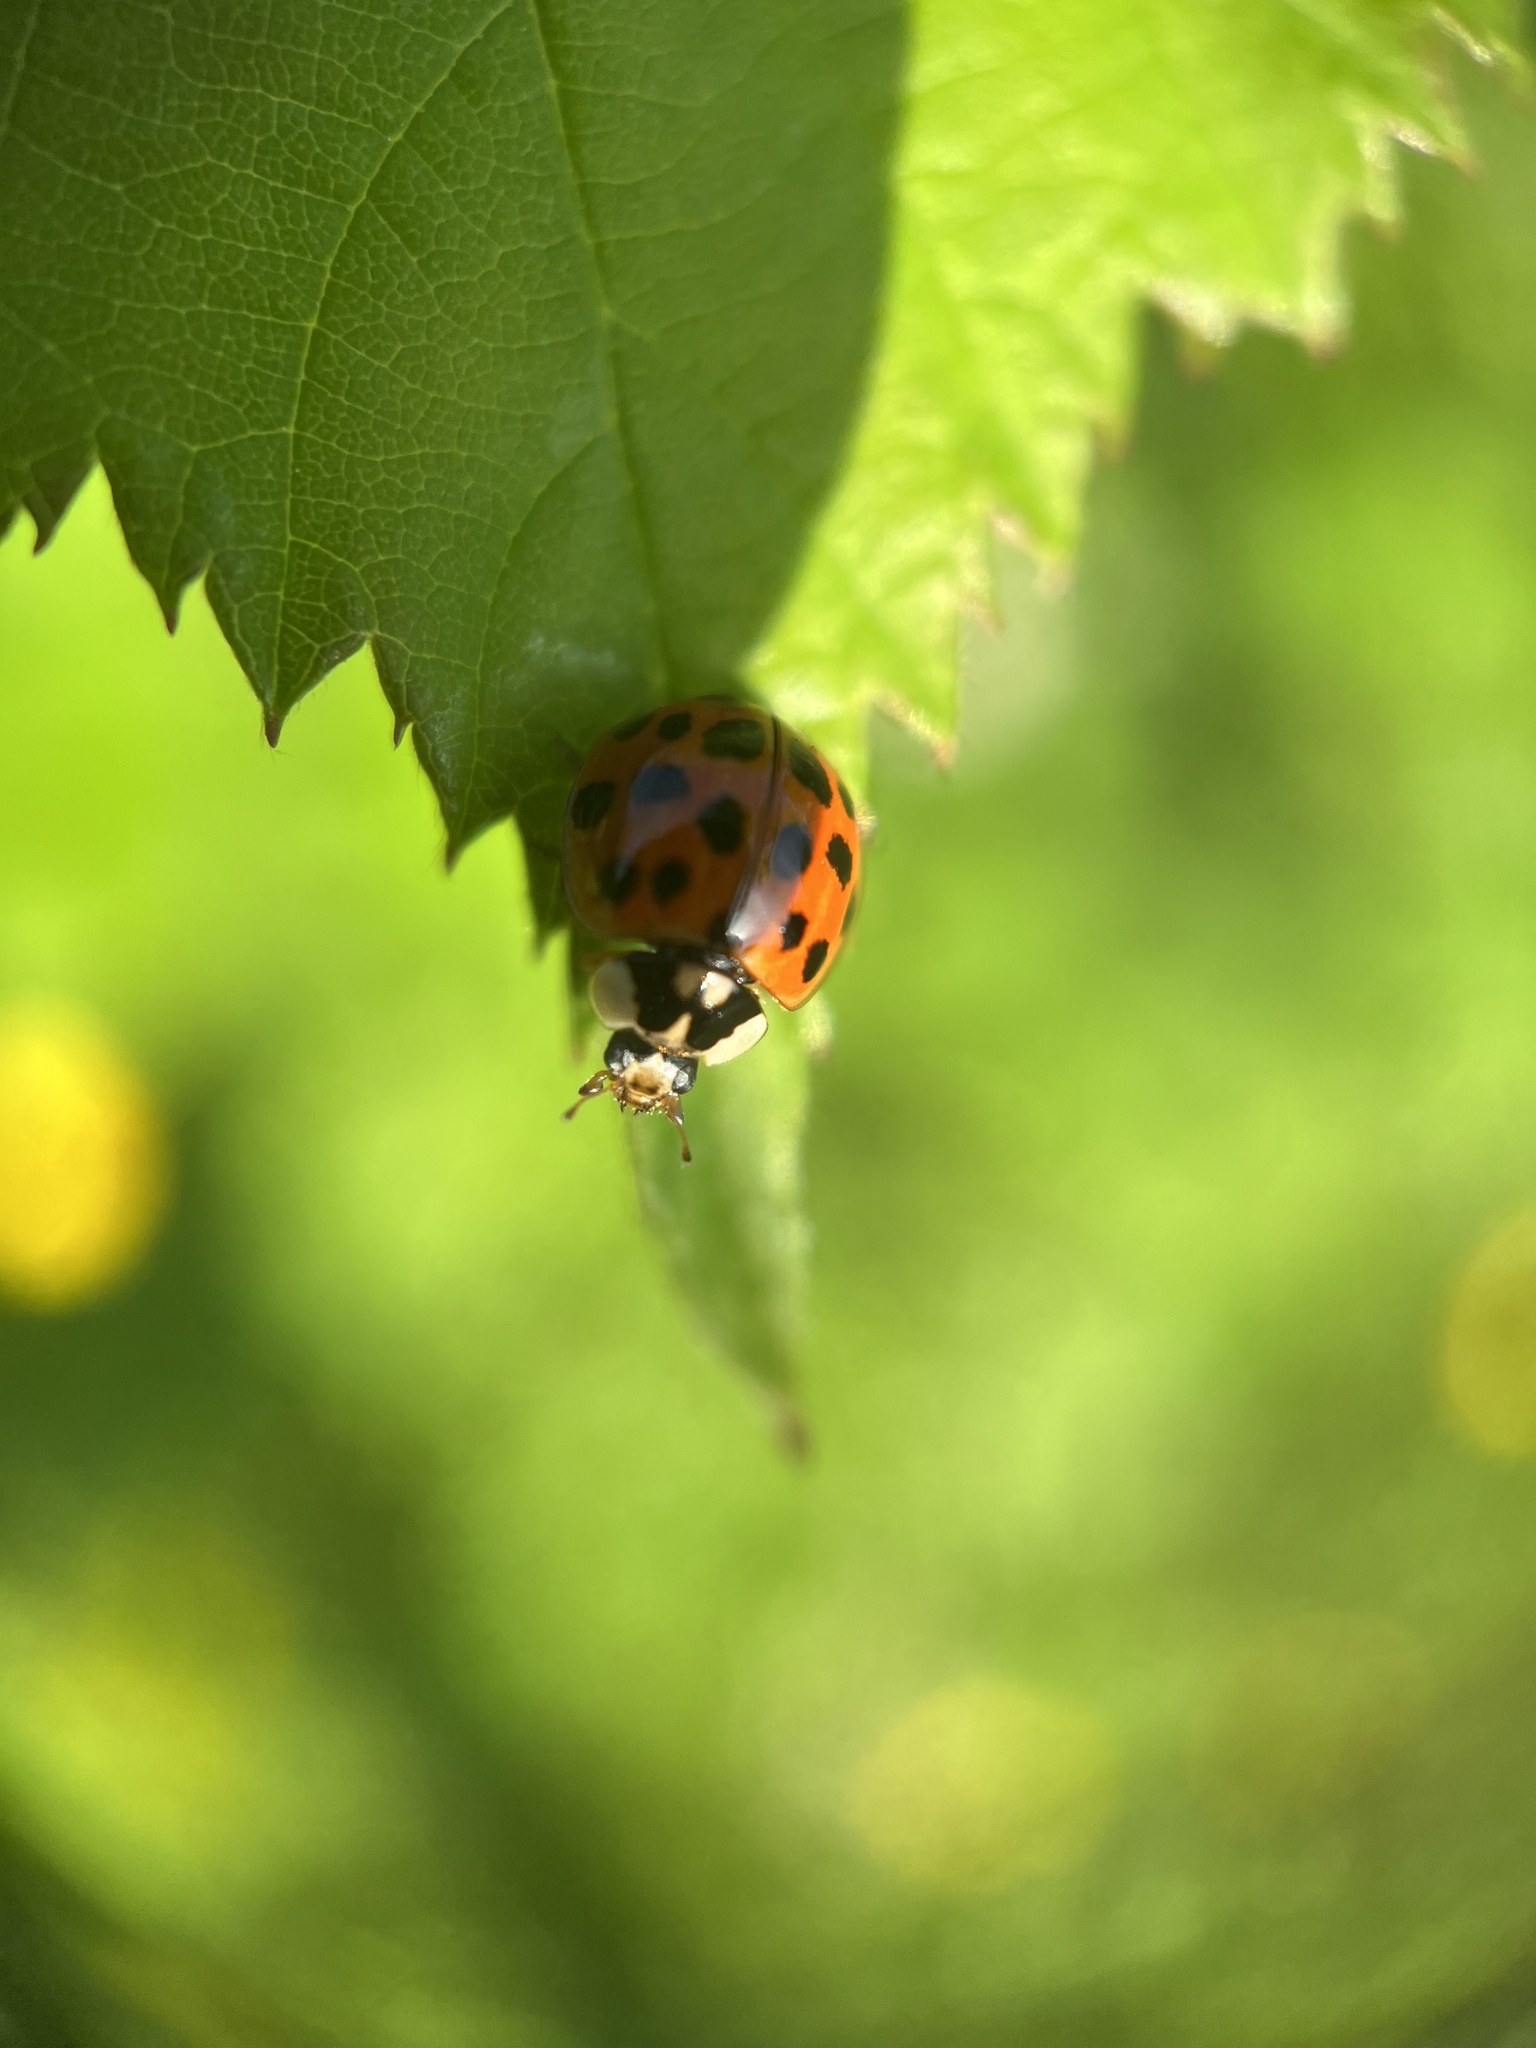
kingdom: Animalia
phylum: Arthropoda
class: Insecta
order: Coleoptera
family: Coccinellidae
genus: Harmonia
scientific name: Harmonia axyridis
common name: Harlequin ladybird
